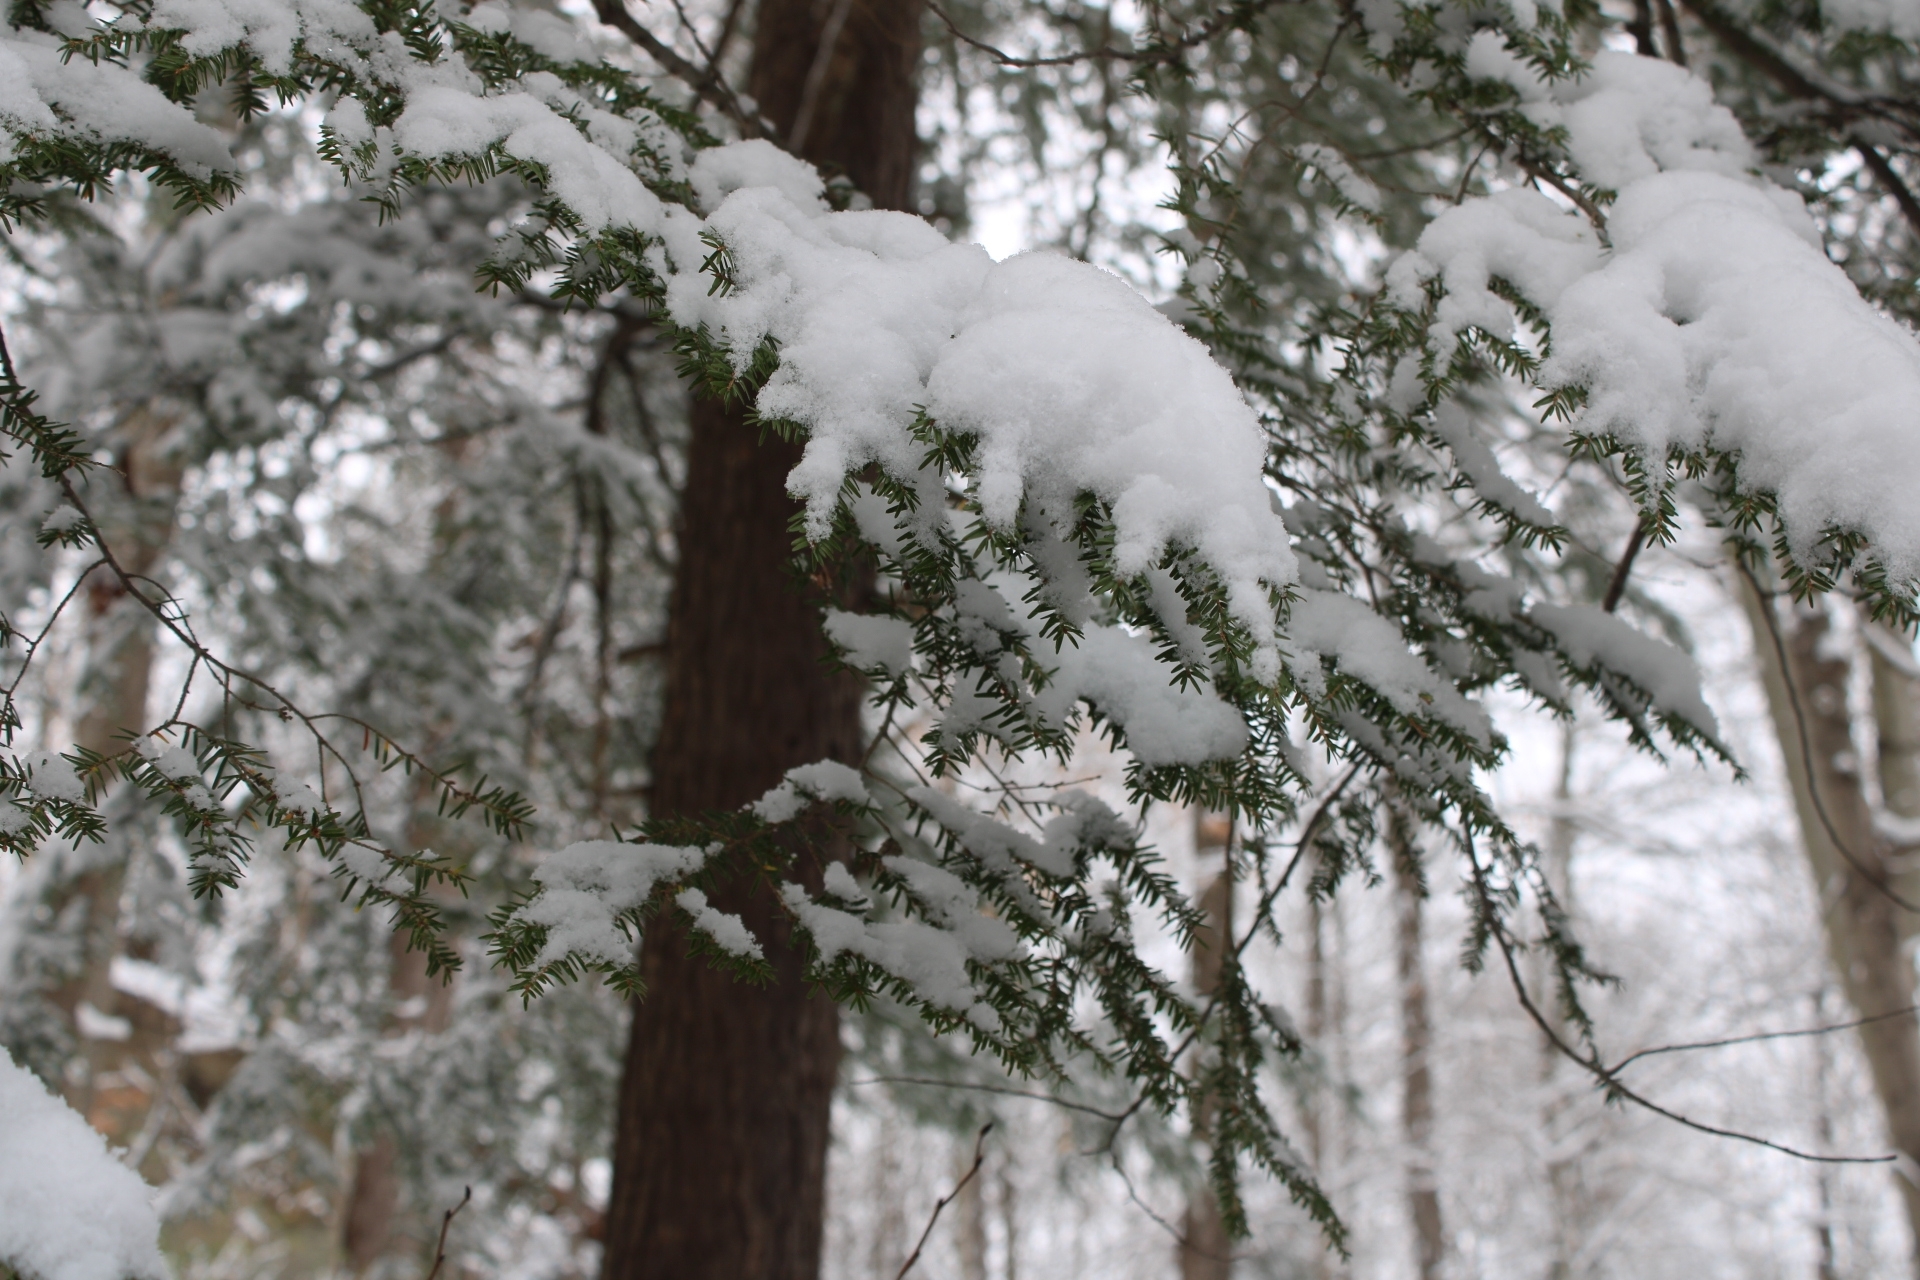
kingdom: Plantae
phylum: Tracheophyta
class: Pinopsida
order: Pinales
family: Pinaceae
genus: Tsuga
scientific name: Tsuga canadensis
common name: Eastern hemlock
